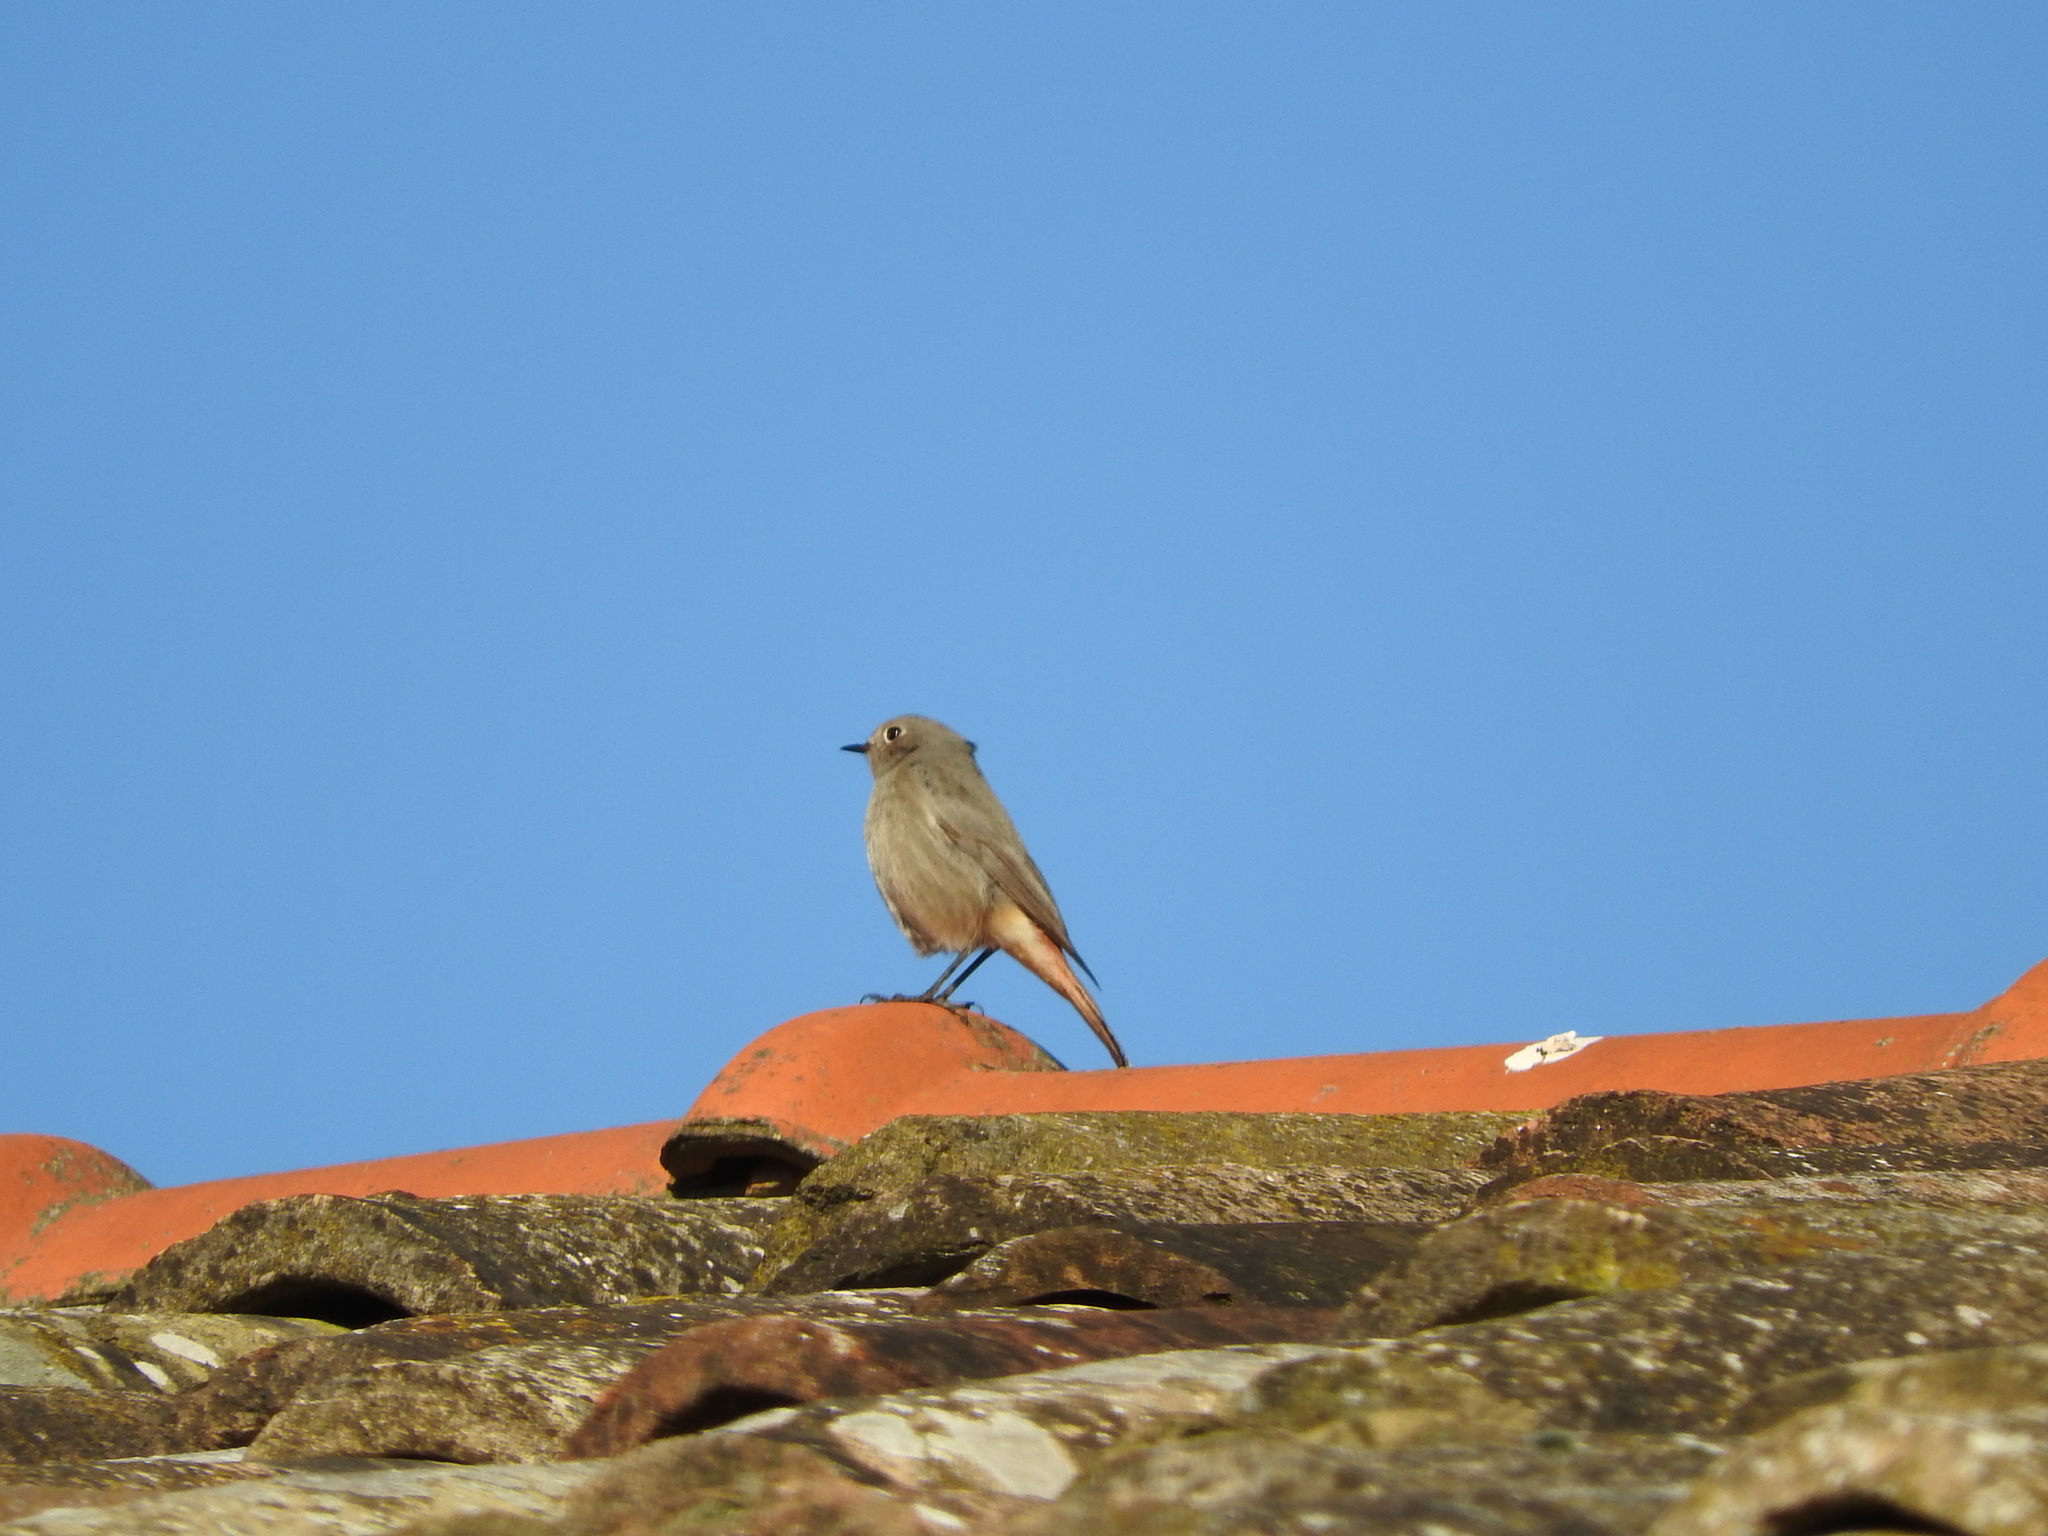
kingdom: Animalia
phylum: Chordata
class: Aves
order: Passeriformes
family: Muscicapidae
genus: Phoenicurus
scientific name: Phoenicurus ochruros
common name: Black redstart
